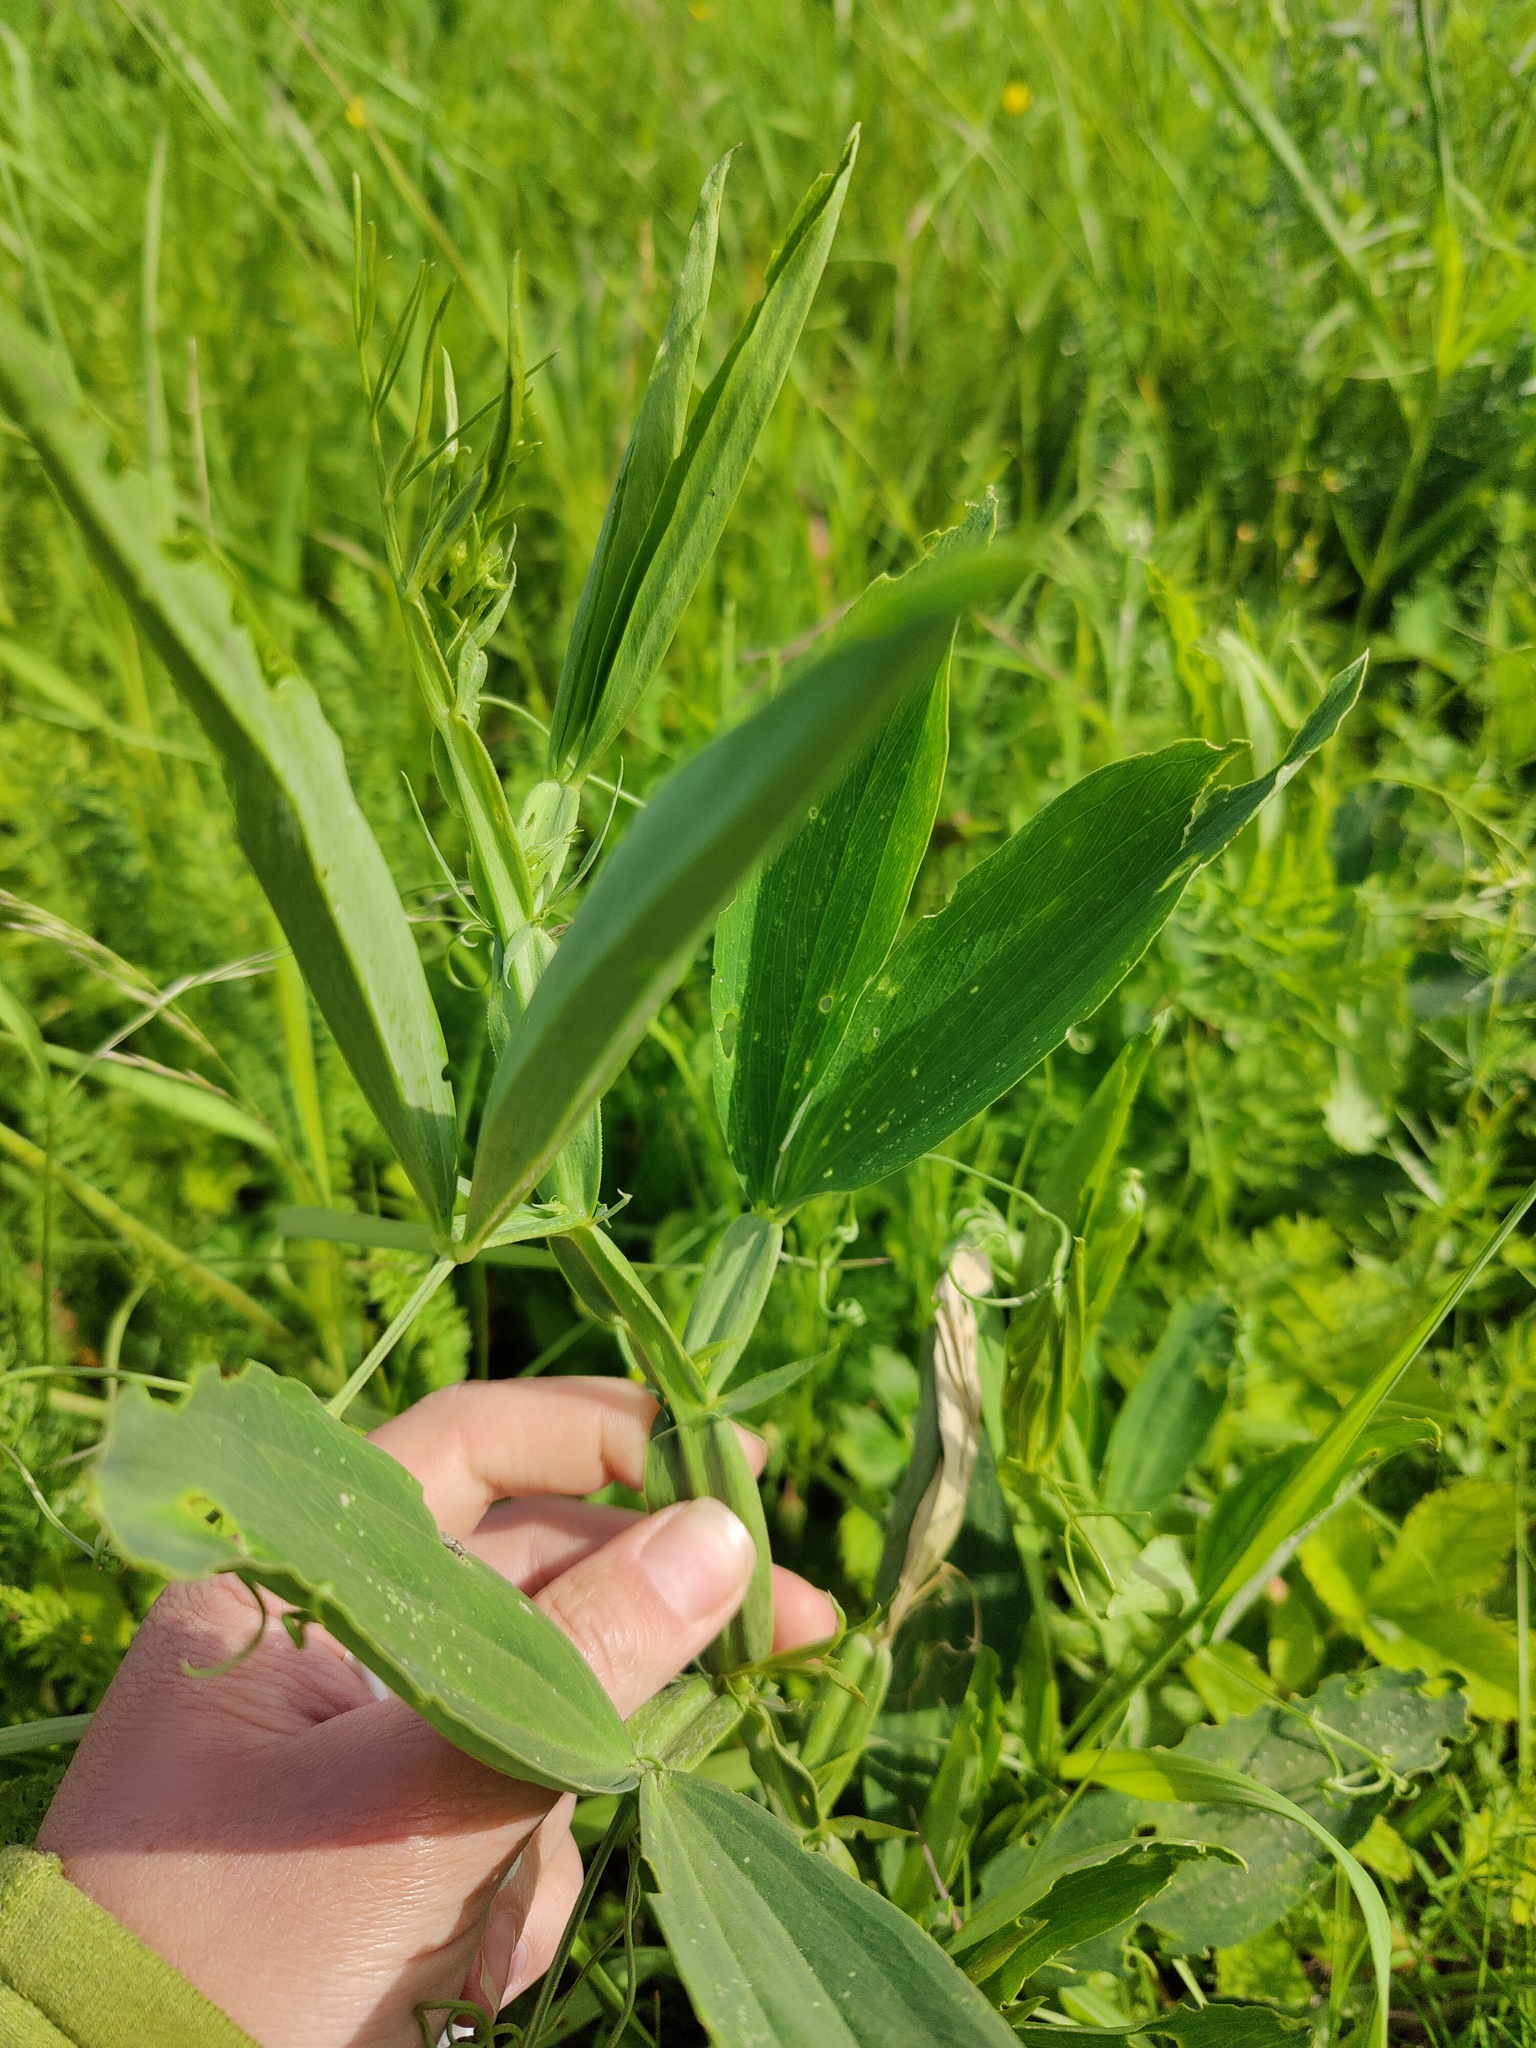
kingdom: Plantae
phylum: Tracheophyta
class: Magnoliopsida
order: Fabales
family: Fabaceae
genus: Lathyrus
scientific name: Lathyrus sylvestris
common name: Flat pea
